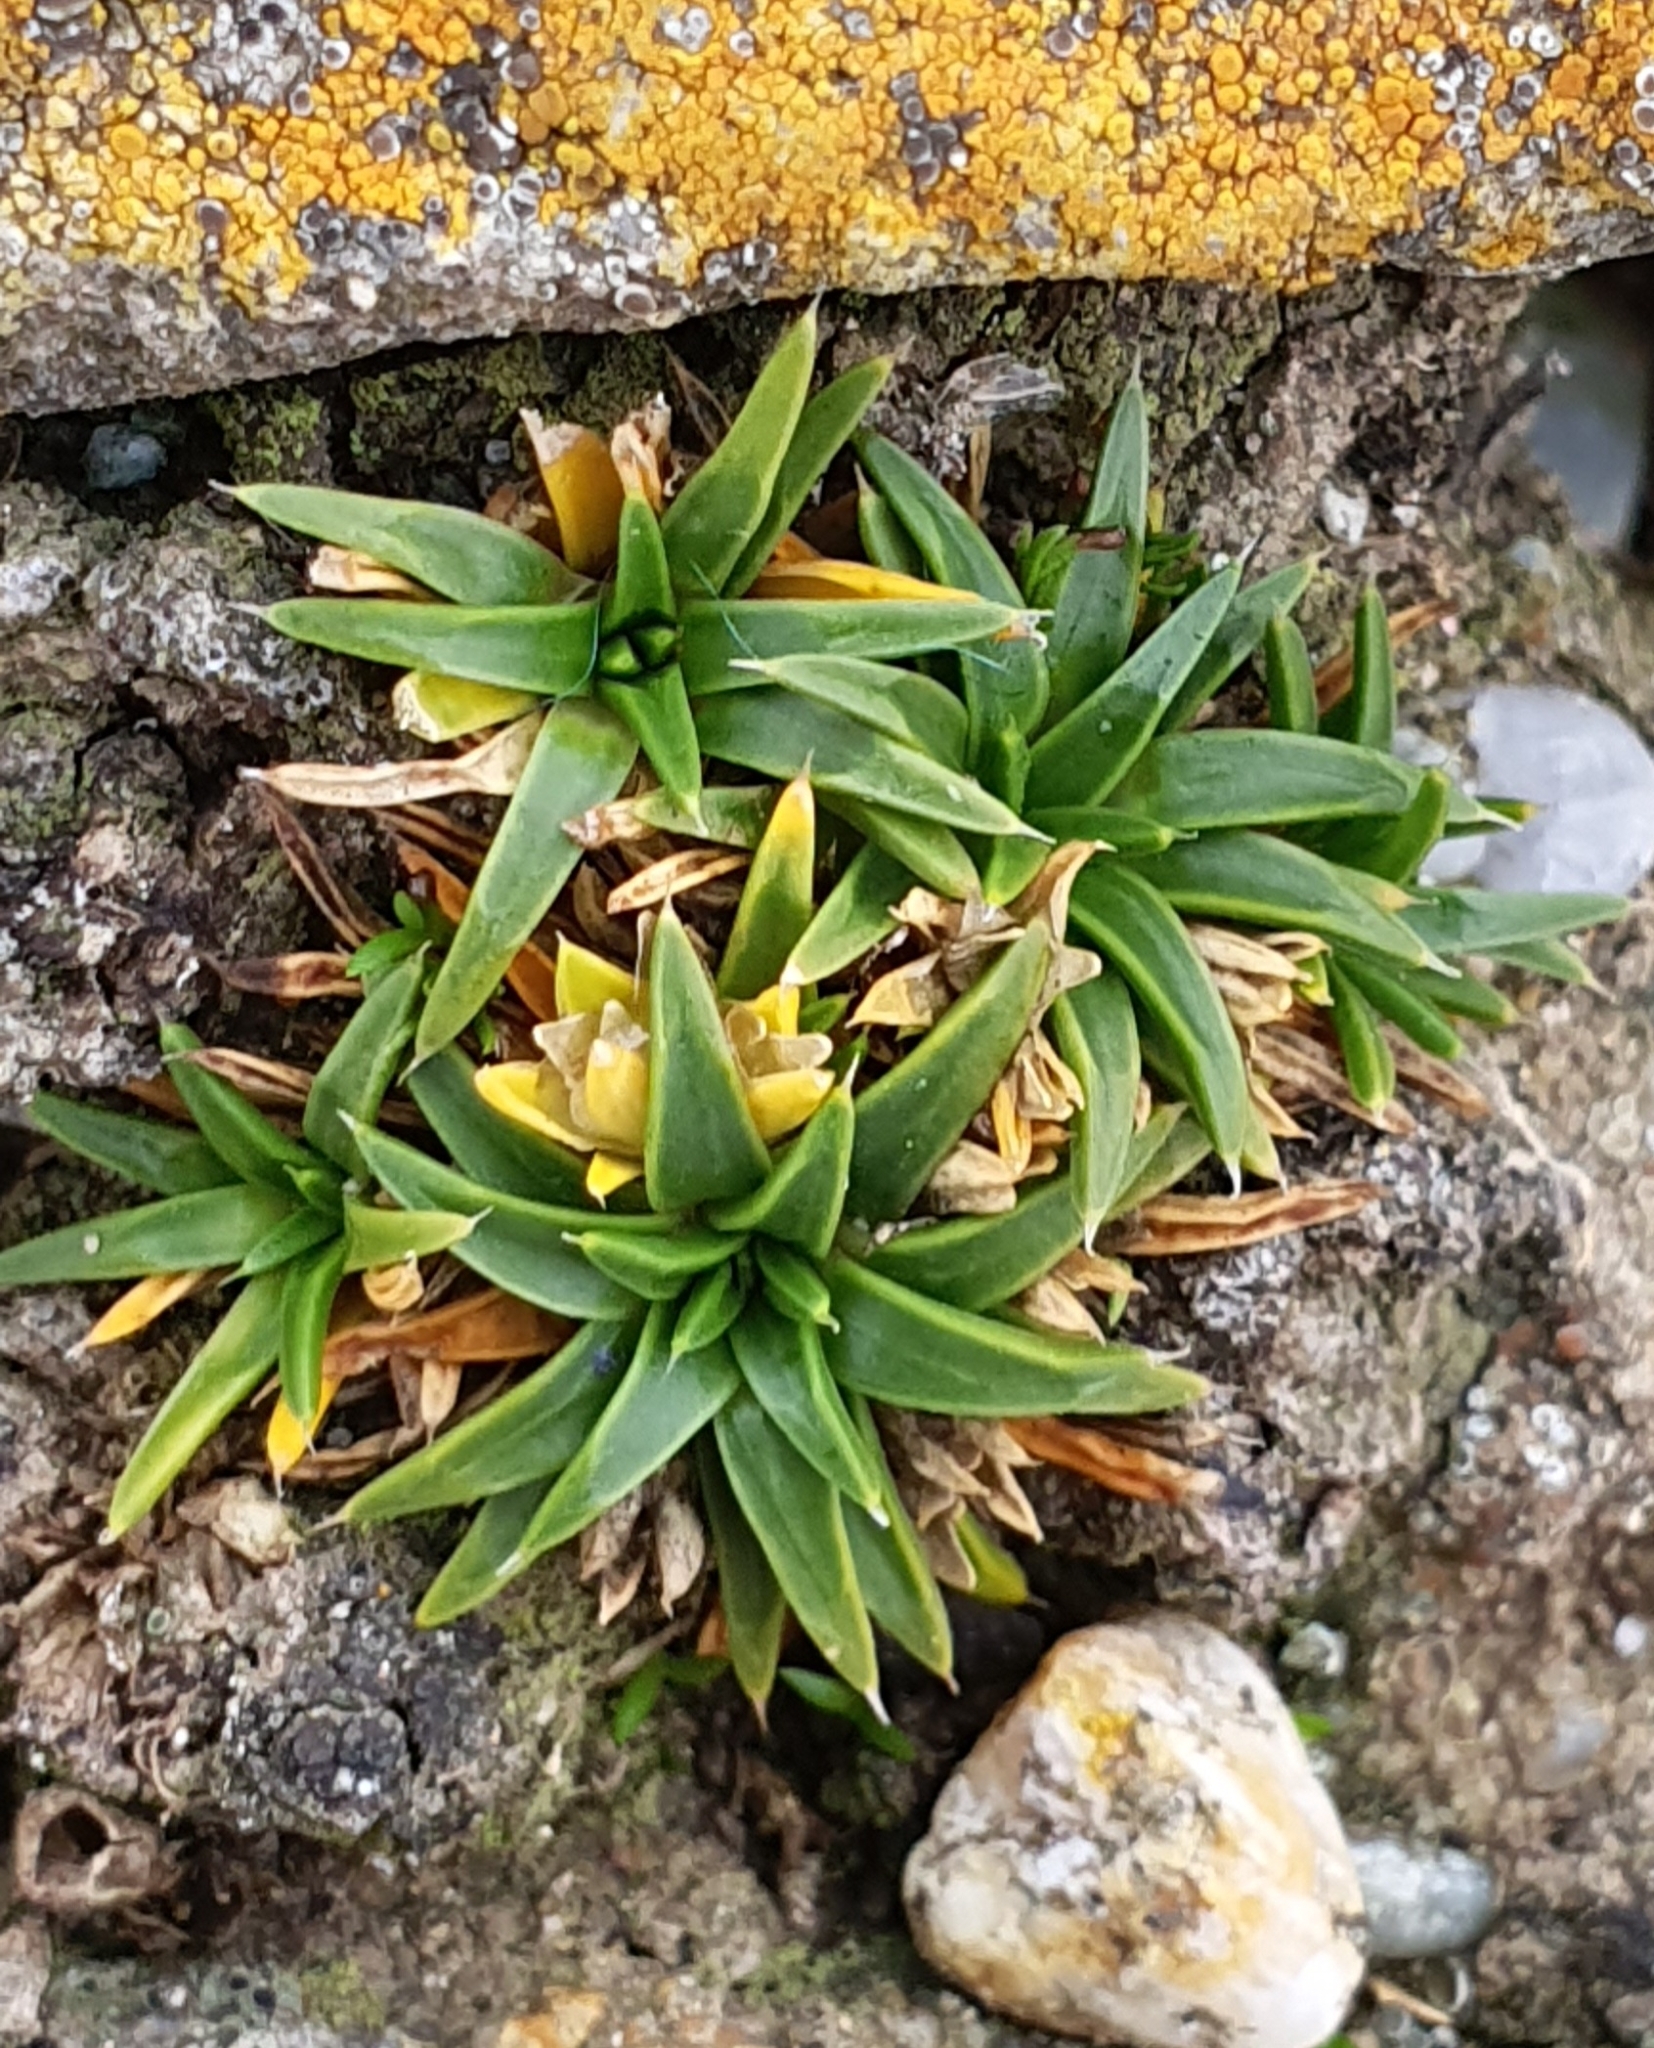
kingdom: Plantae
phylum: Tracheophyta
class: Magnoliopsida
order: Caryophyllales
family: Caryophyllaceae
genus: Colobanthus
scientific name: Colobanthus muelleri
